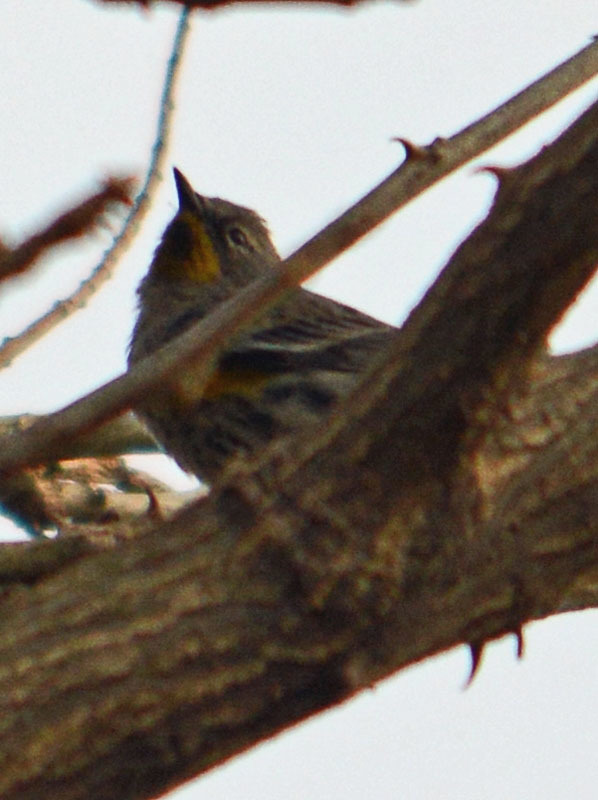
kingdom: Animalia
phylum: Chordata
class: Aves
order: Passeriformes
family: Parulidae
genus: Setophaga
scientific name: Setophaga auduboni
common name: Audubon's warbler
